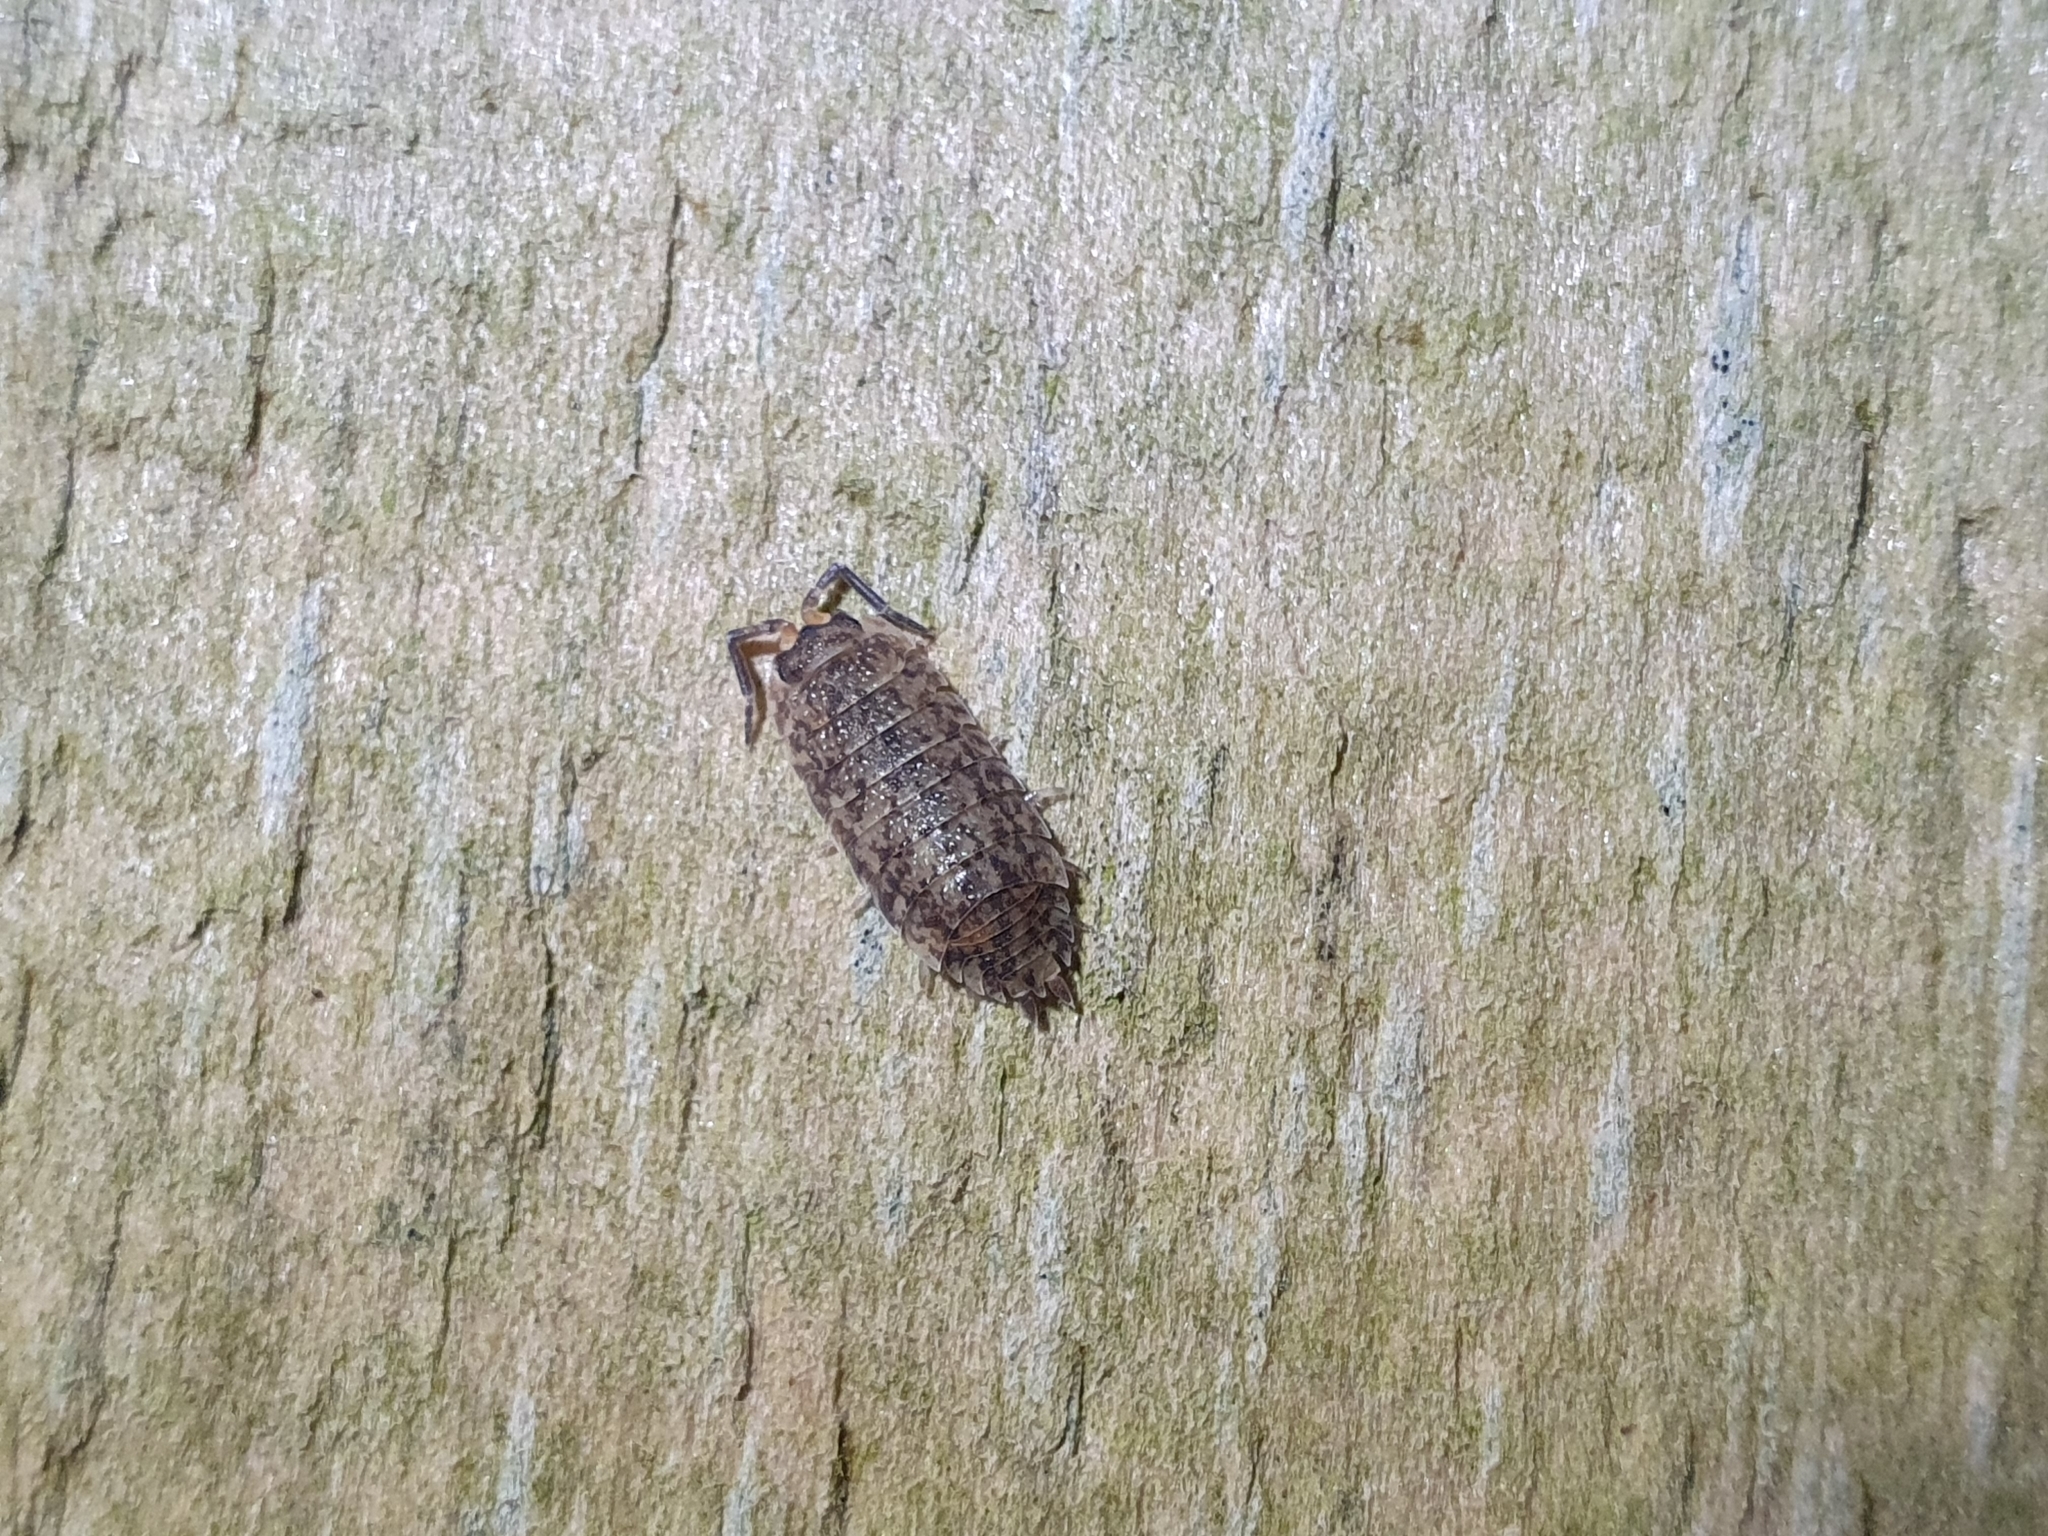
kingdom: Animalia
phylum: Arthropoda
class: Malacostraca
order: Isopoda
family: Porcellionidae
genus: Porcellio
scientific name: Porcellio scaber
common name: Common rough woodlouse
